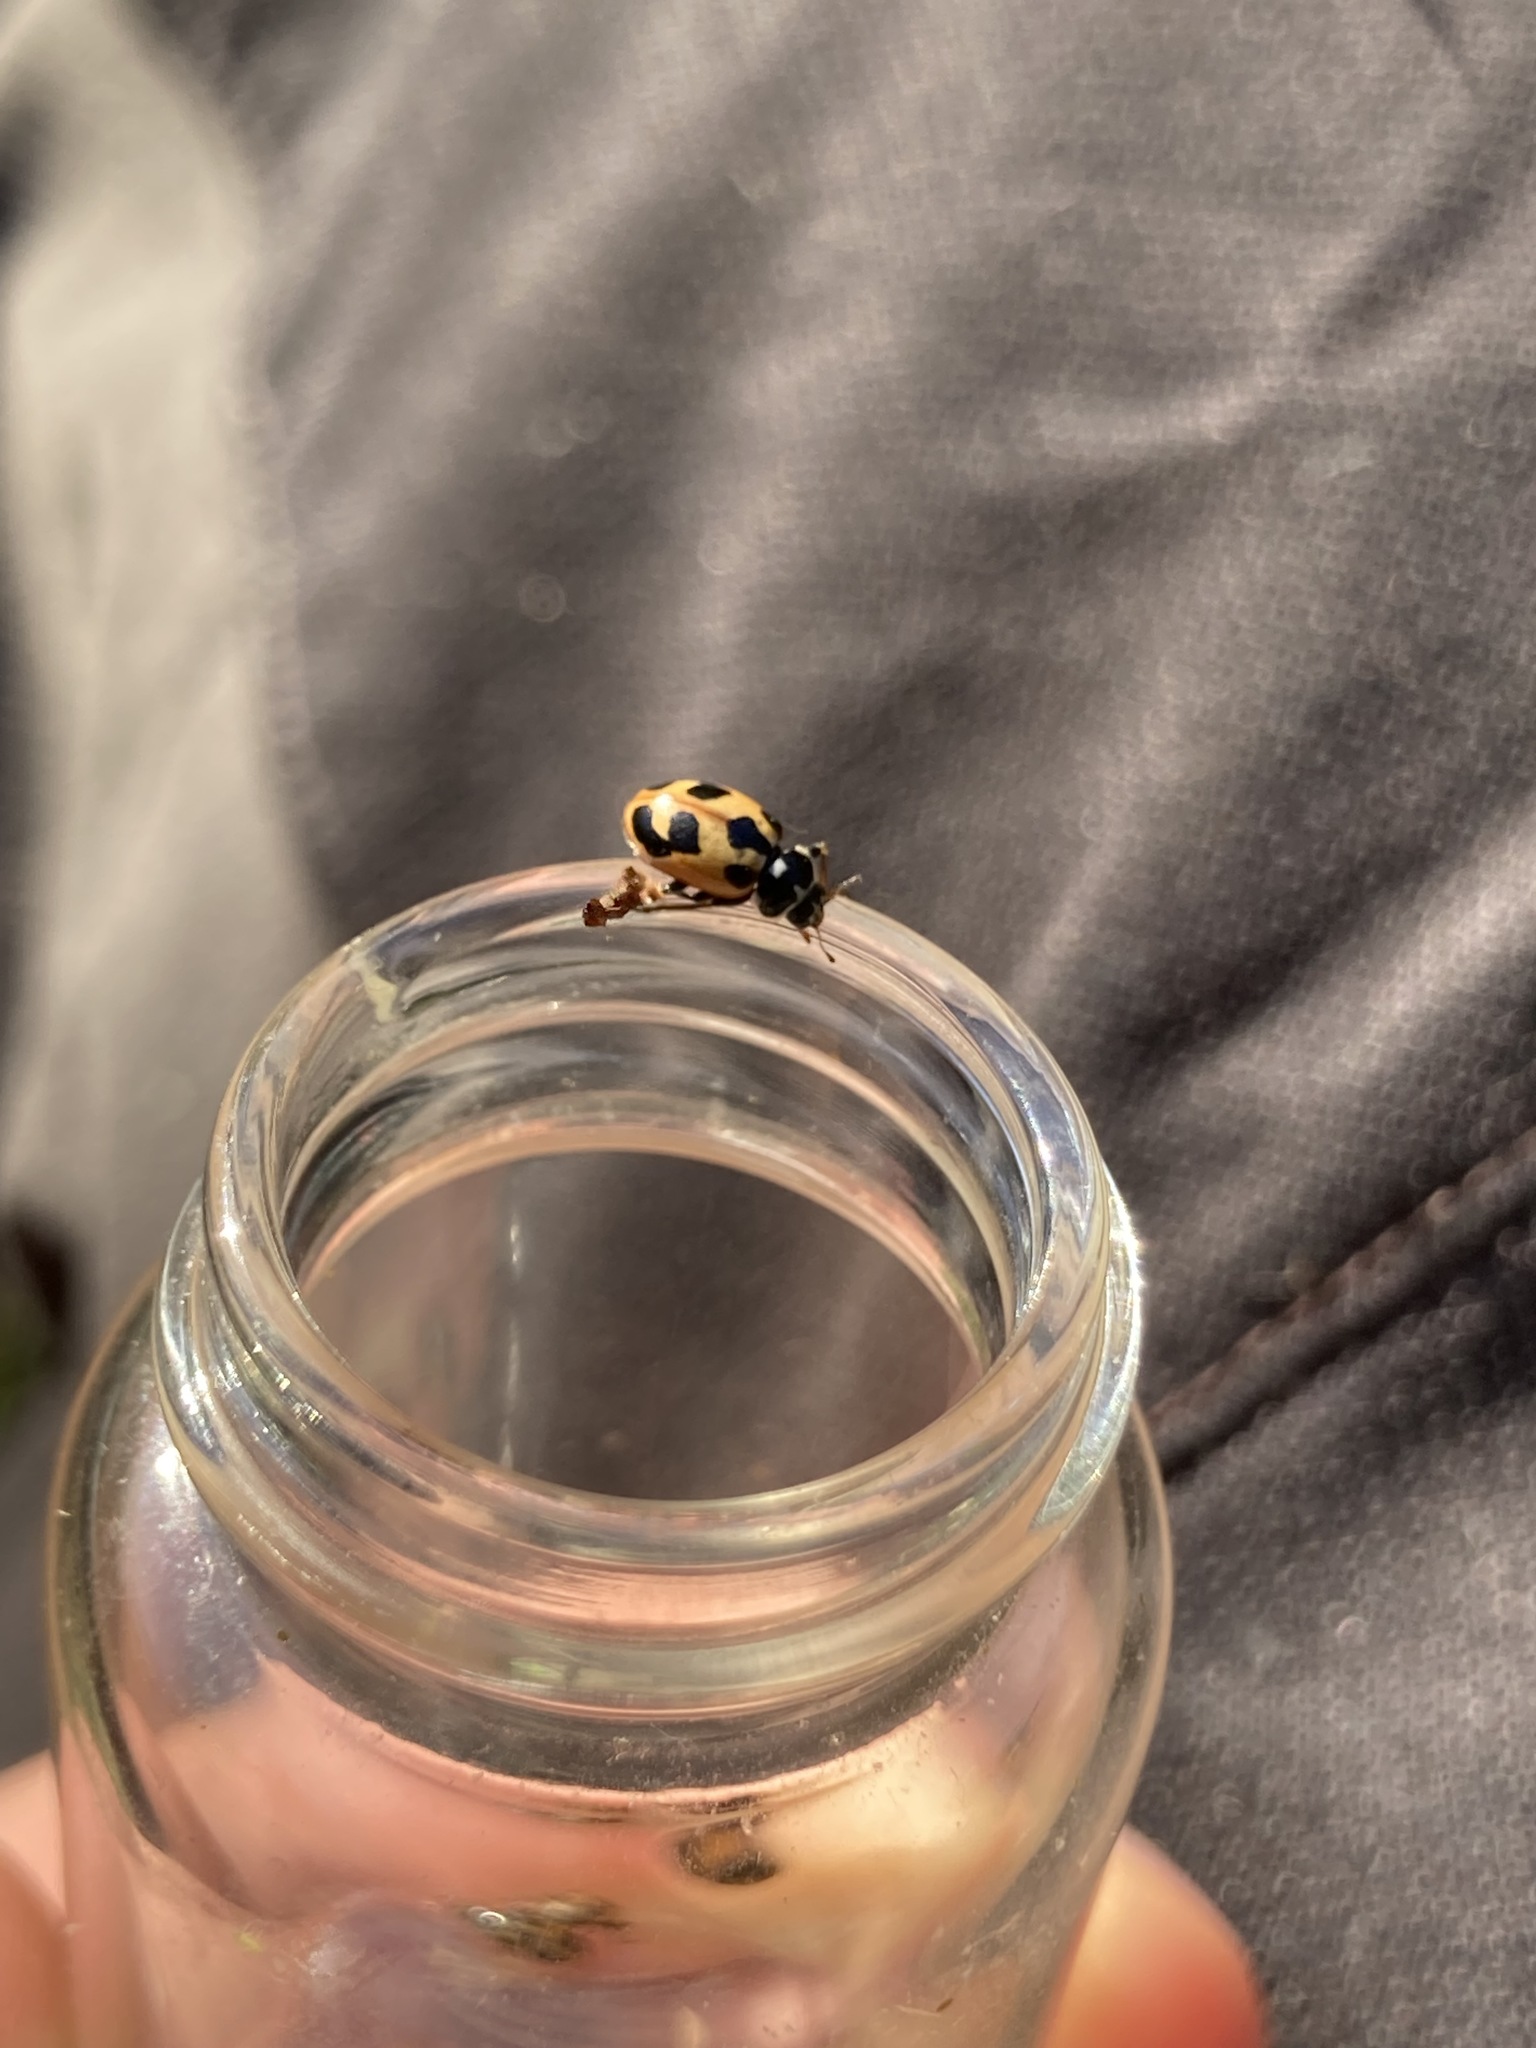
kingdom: Animalia
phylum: Arthropoda
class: Insecta
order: Coleoptera
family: Coccinellidae
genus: Hippodamia
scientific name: Hippodamia parenthesis
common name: Parenthesis lady beetle
